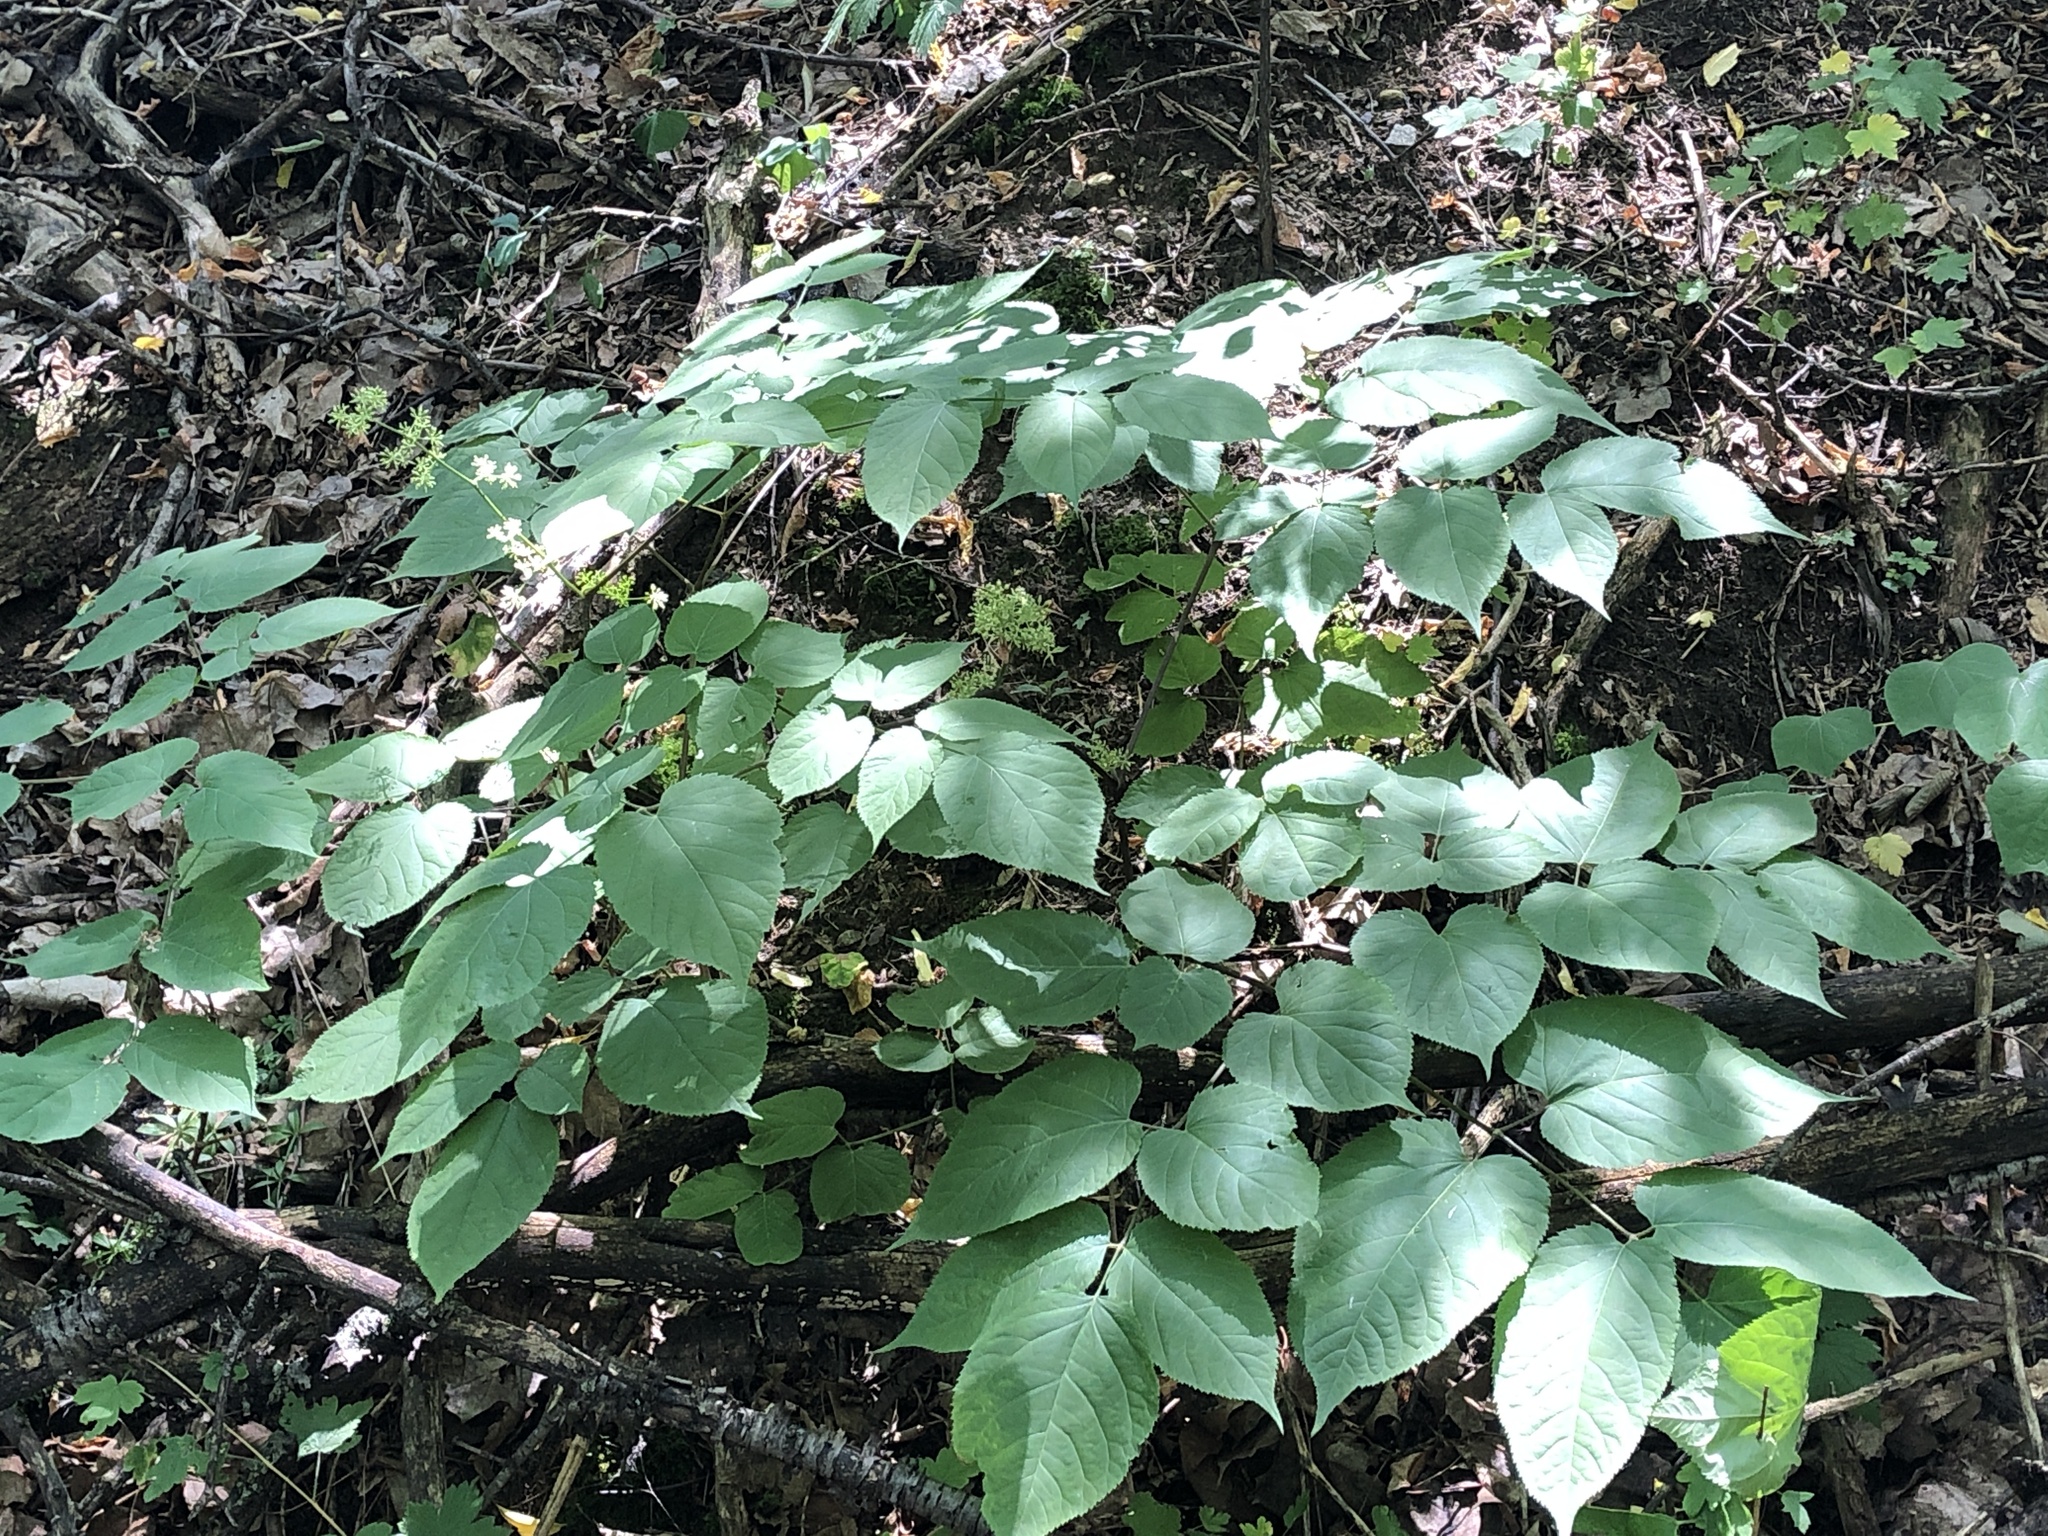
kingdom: Plantae
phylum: Tracheophyta
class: Magnoliopsida
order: Apiales
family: Araliaceae
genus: Aralia
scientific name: Aralia racemosa
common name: American-spikenard
